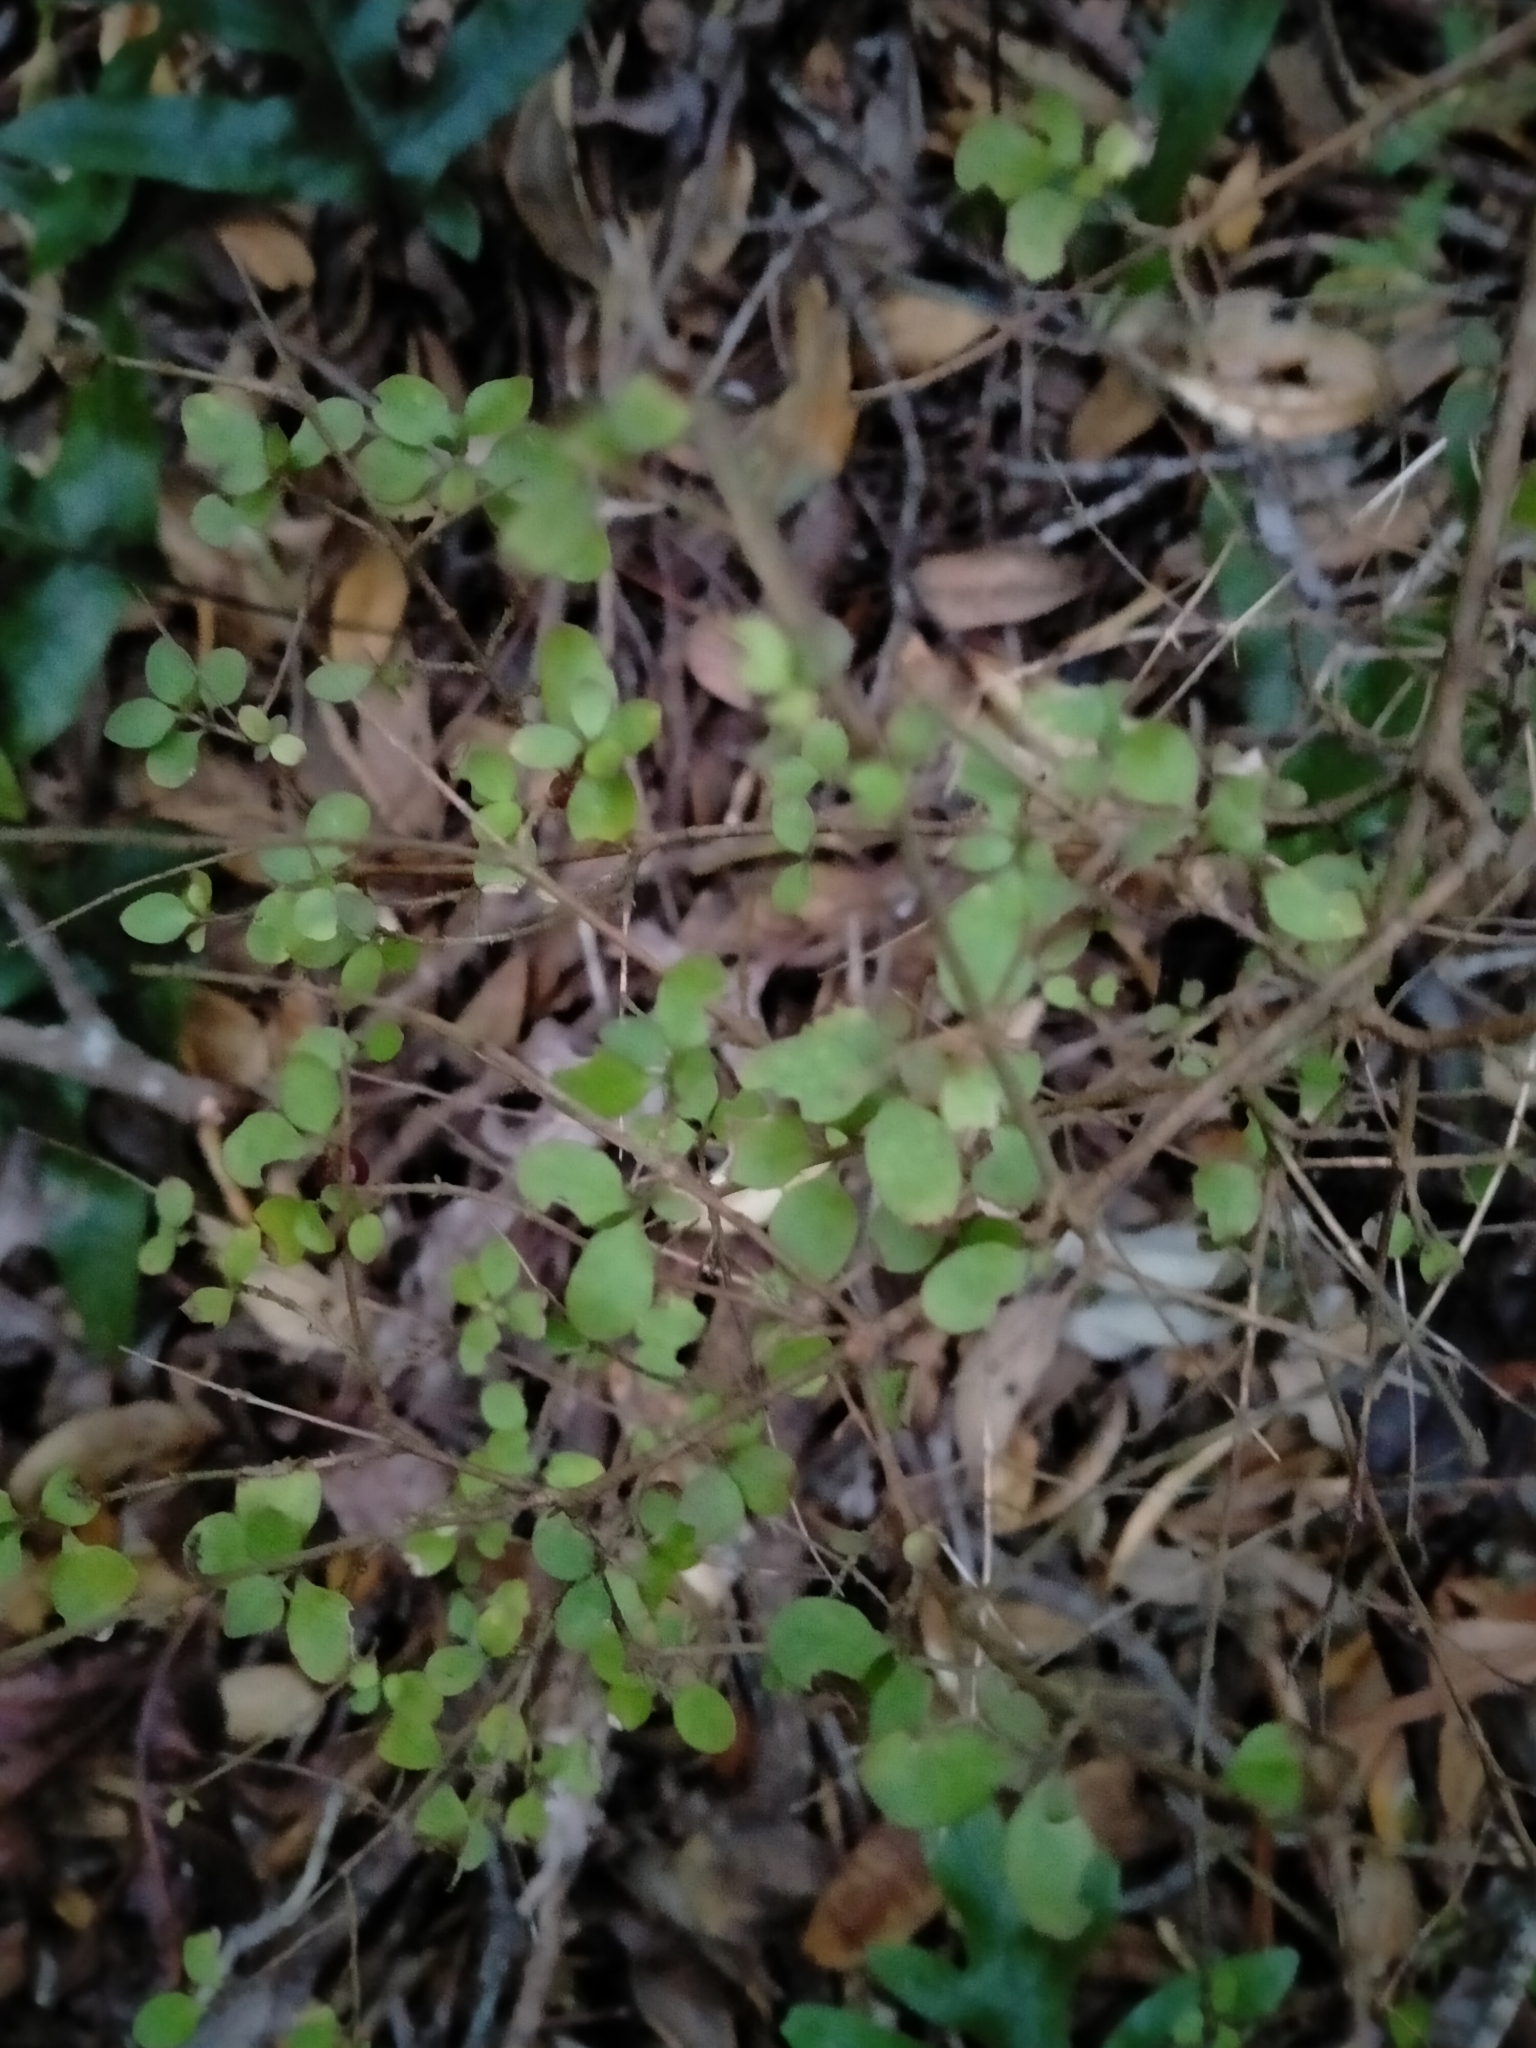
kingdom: Plantae
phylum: Tracheophyta
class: Magnoliopsida
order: Gentianales
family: Rubiaceae
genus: Coprosma
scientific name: Coprosma rhamnoides
